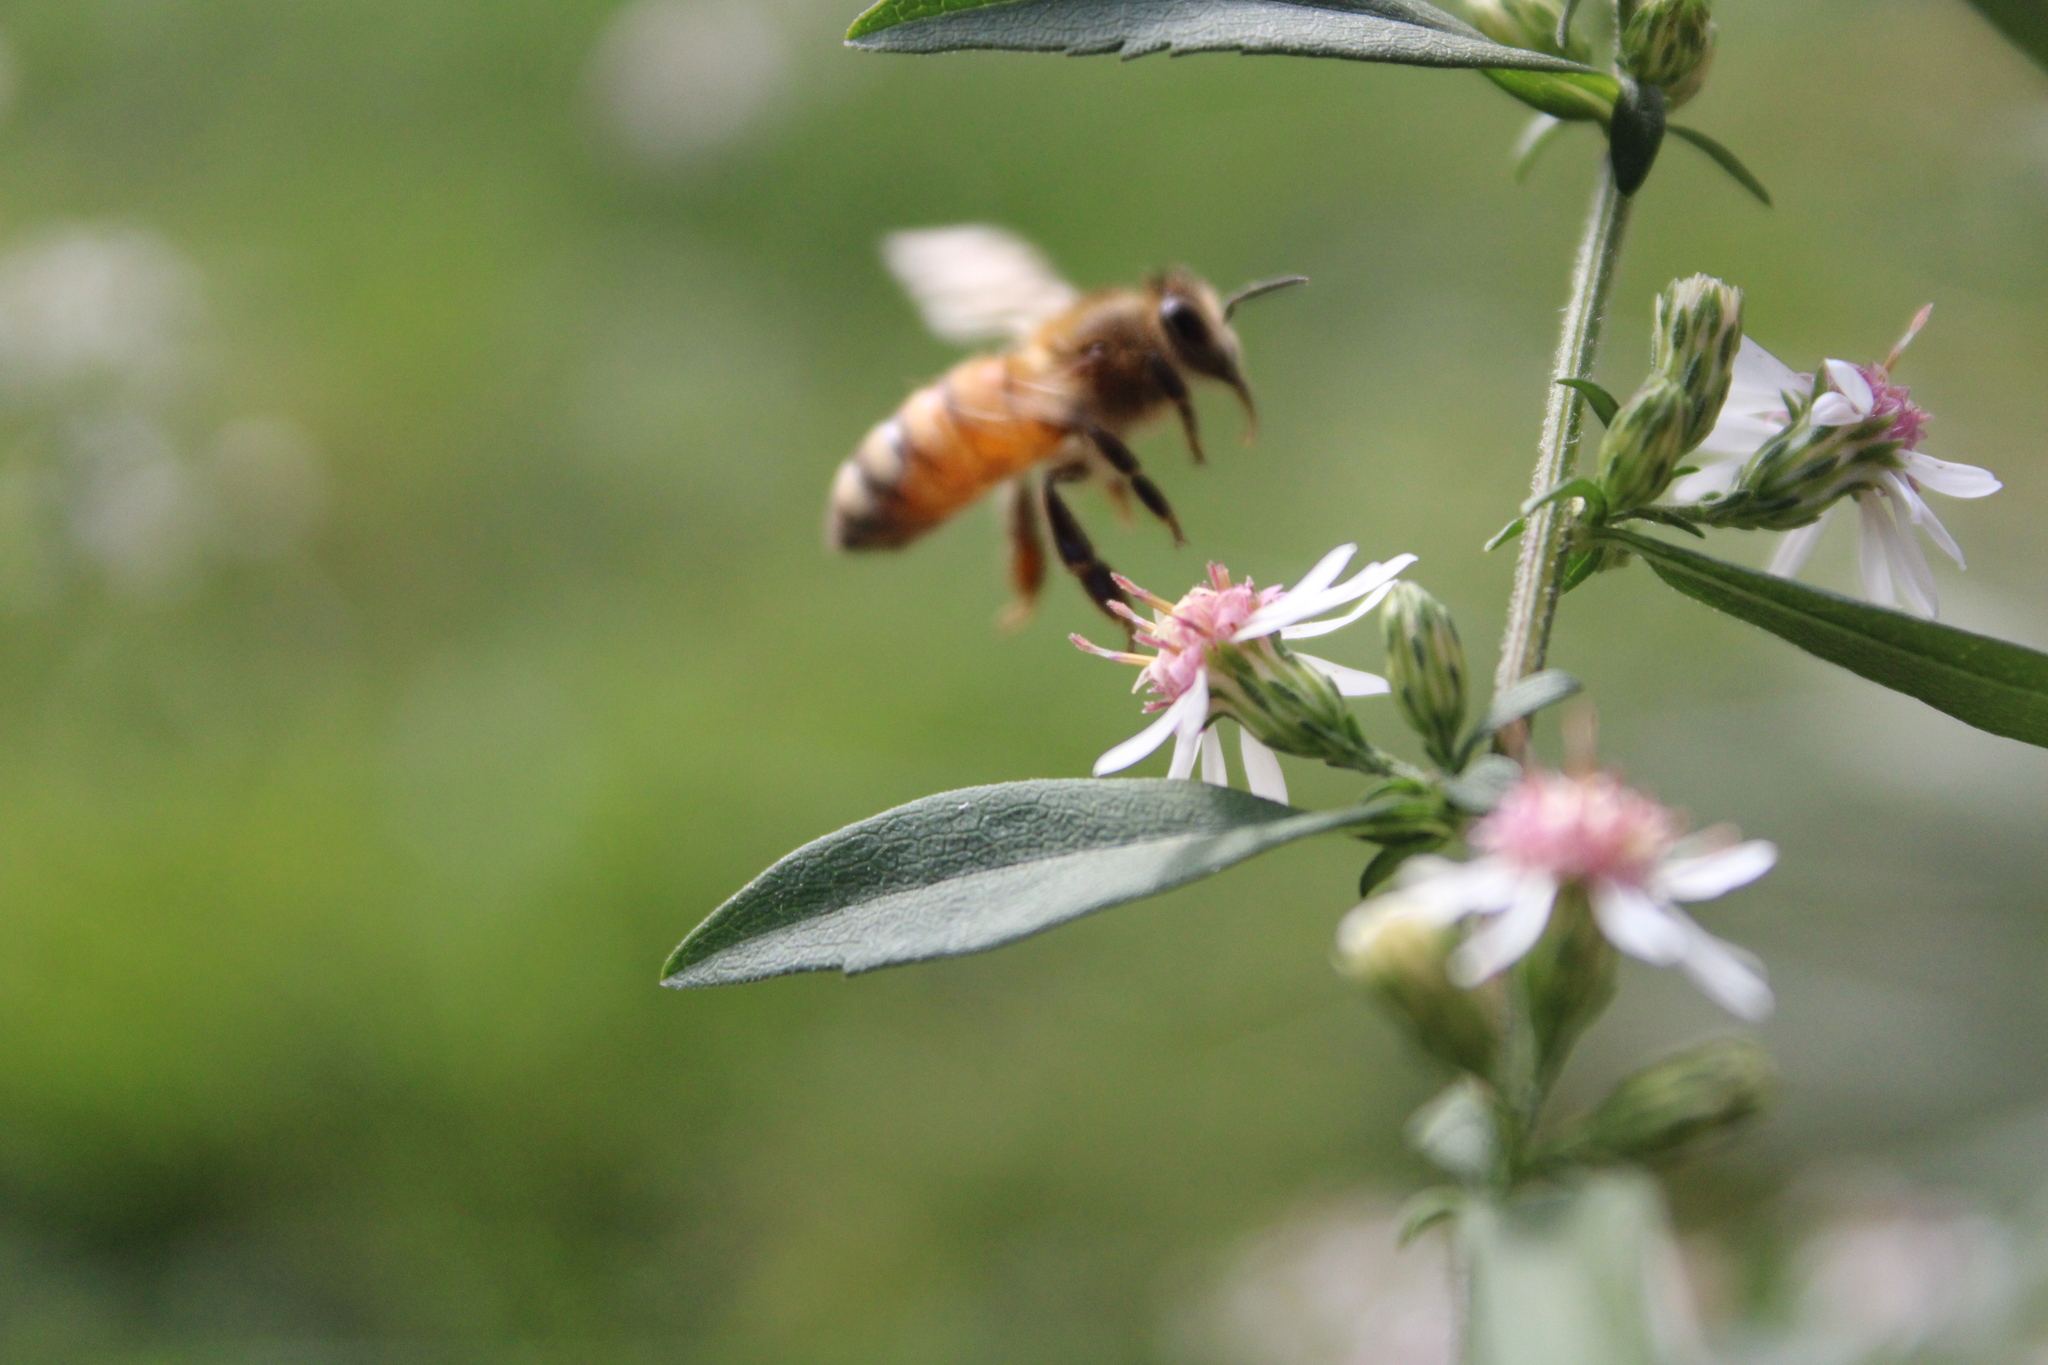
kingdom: Animalia
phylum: Arthropoda
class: Insecta
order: Hymenoptera
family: Apidae
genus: Apis
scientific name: Apis mellifera
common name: Honey bee
